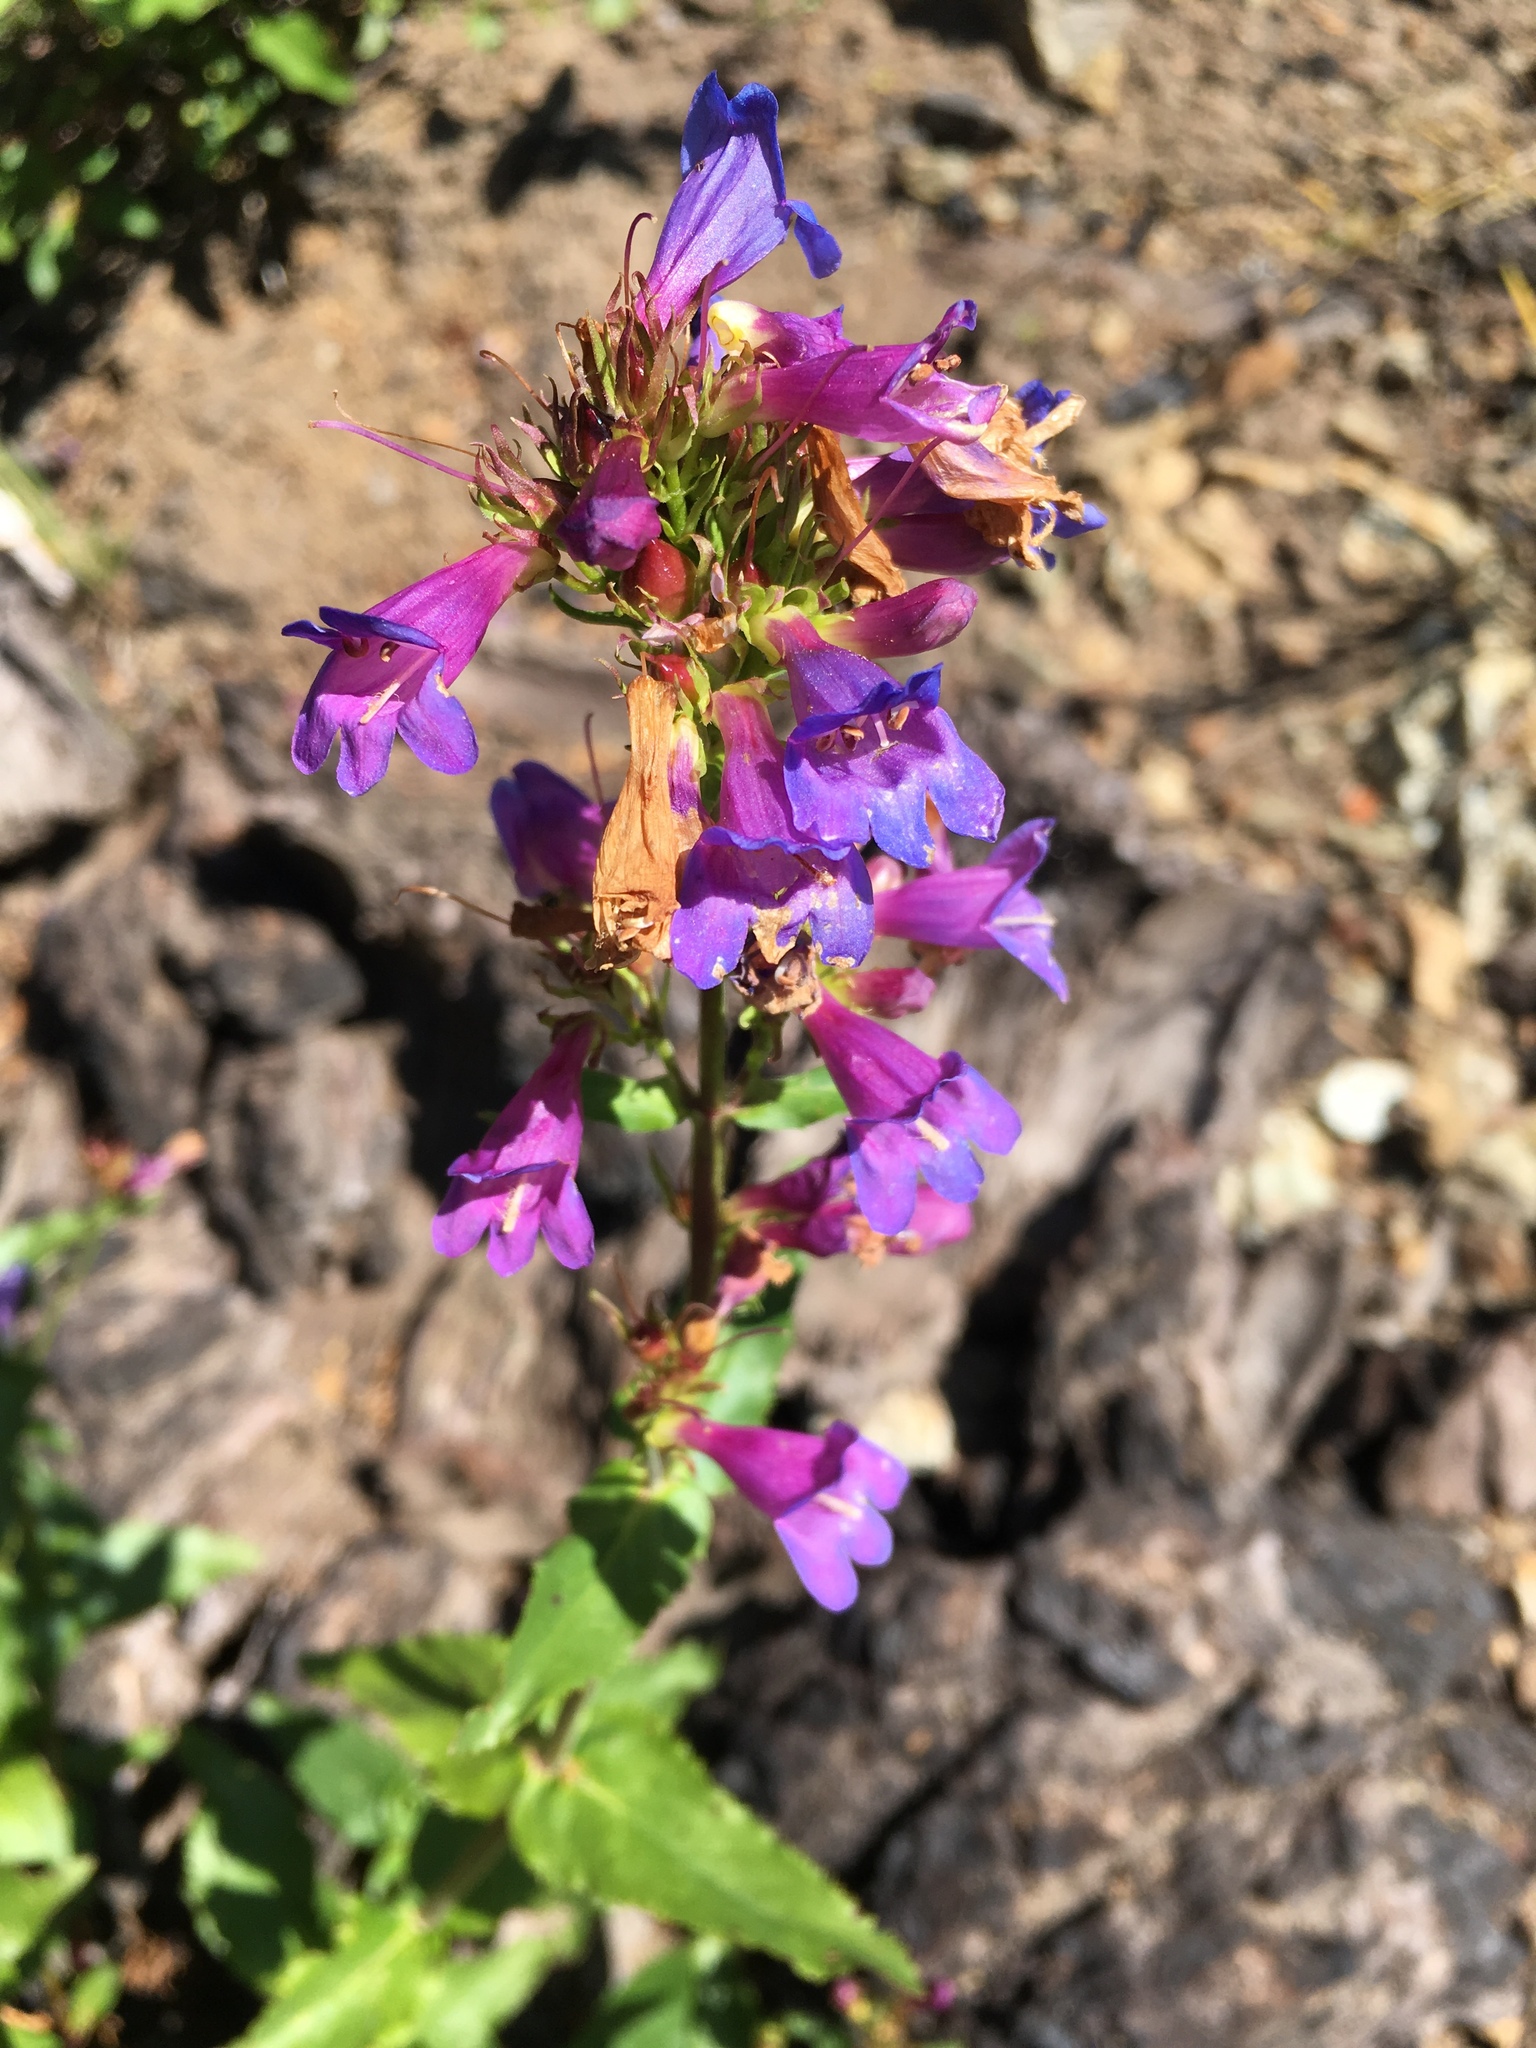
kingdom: Plantae
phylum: Tracheophyta
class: Magnoliopsida
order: Lamiales
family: Plantaginaceae
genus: Penstemon
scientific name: Penstemon serrulatus
